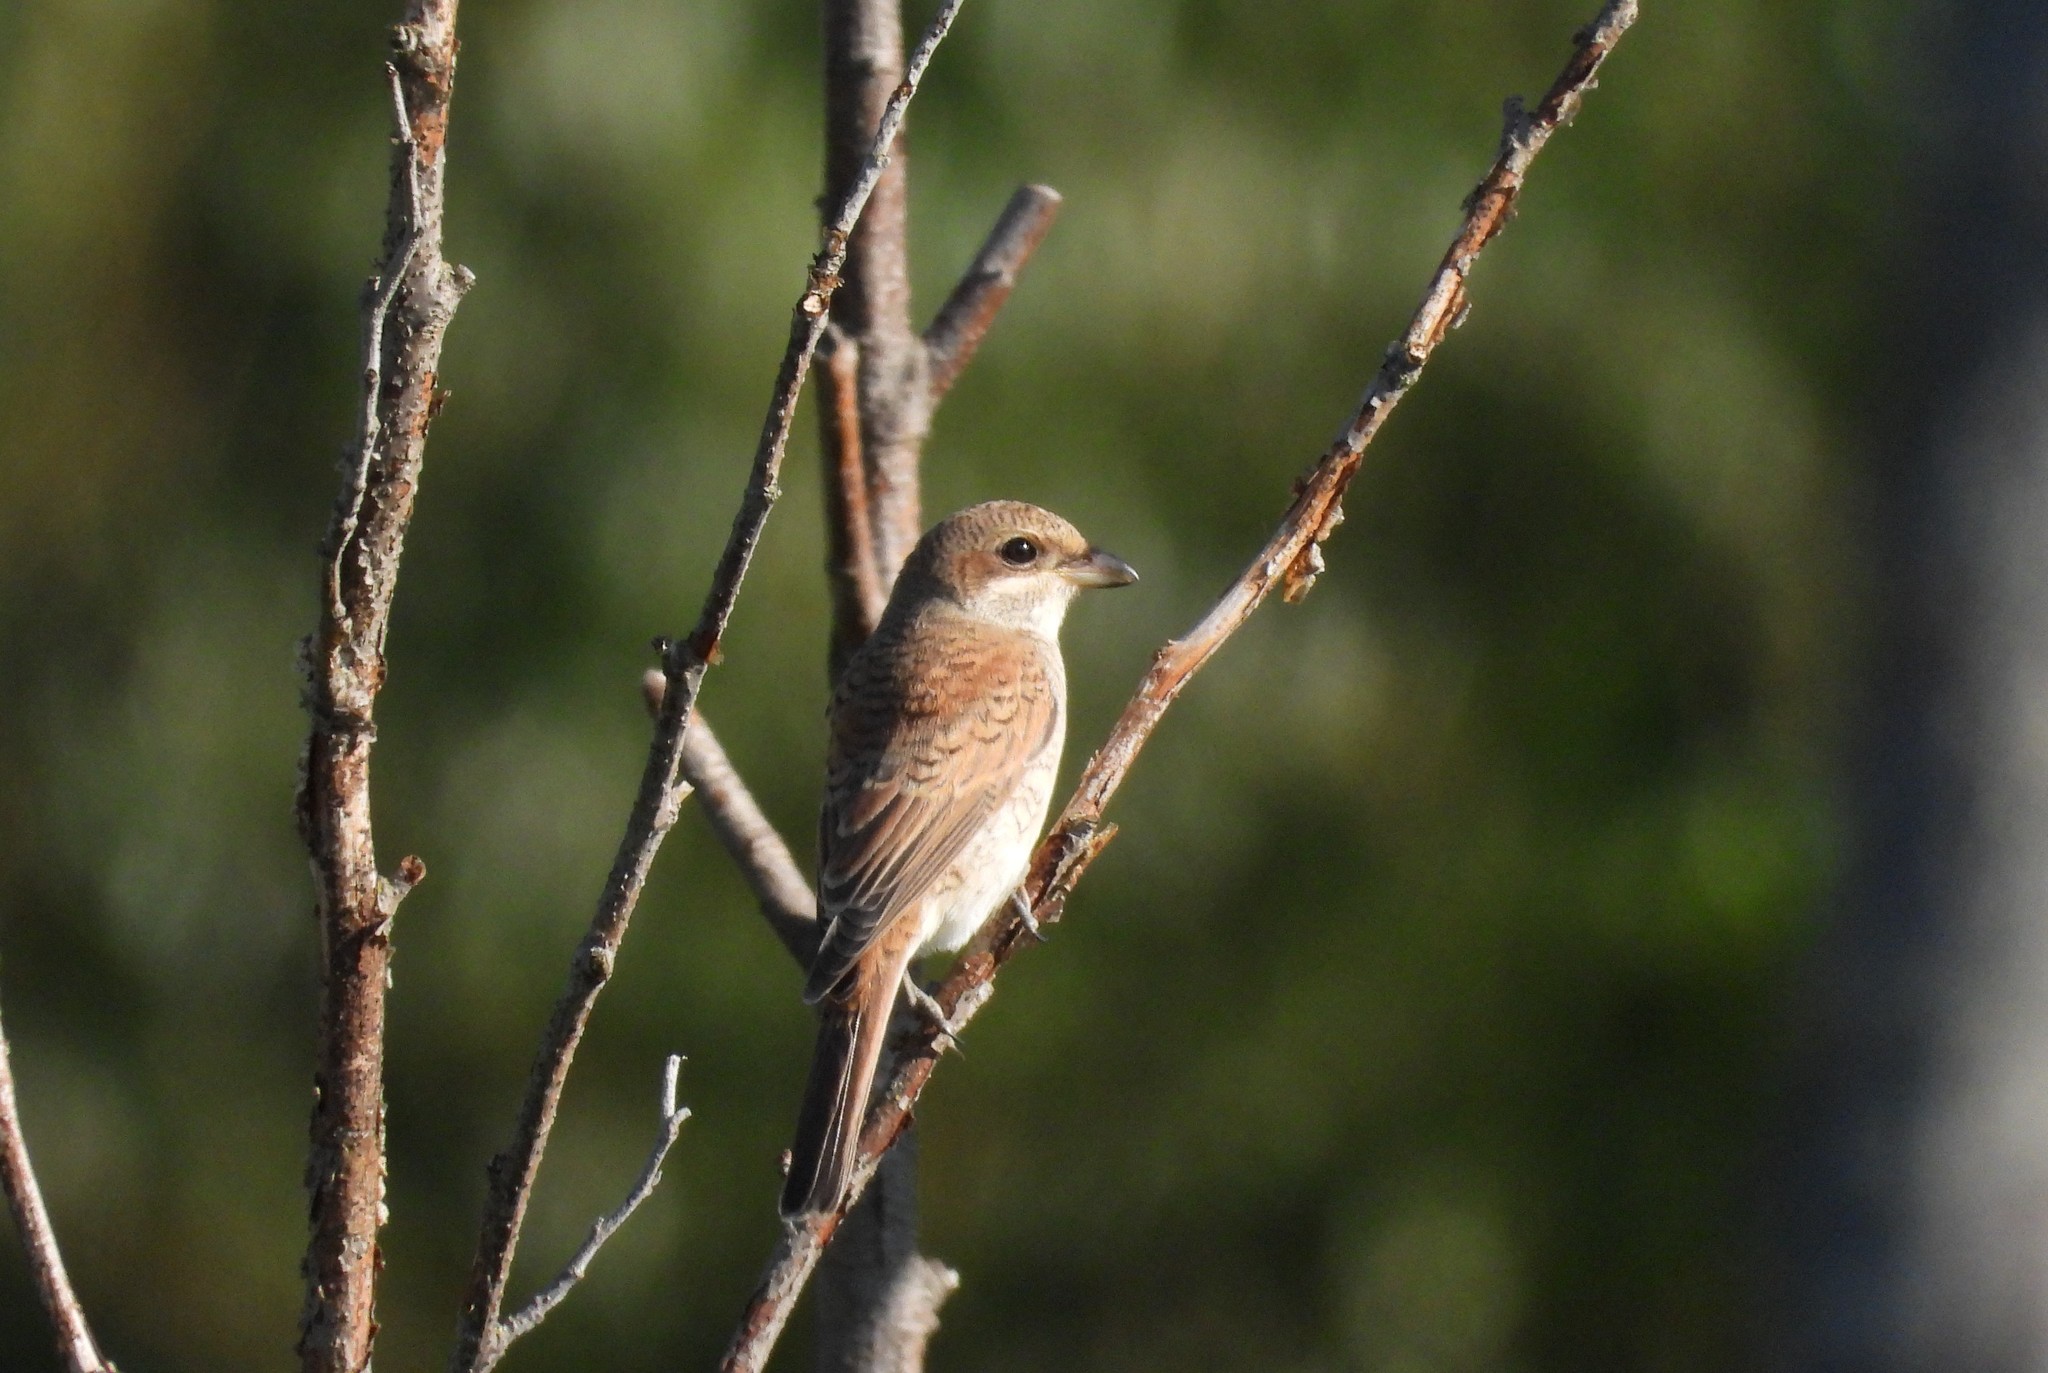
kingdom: Animalia
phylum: Chordata
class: Aves
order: Passeriformes
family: Laniidae
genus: Lanius
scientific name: Lanius collurio
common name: Red-backed shrike
